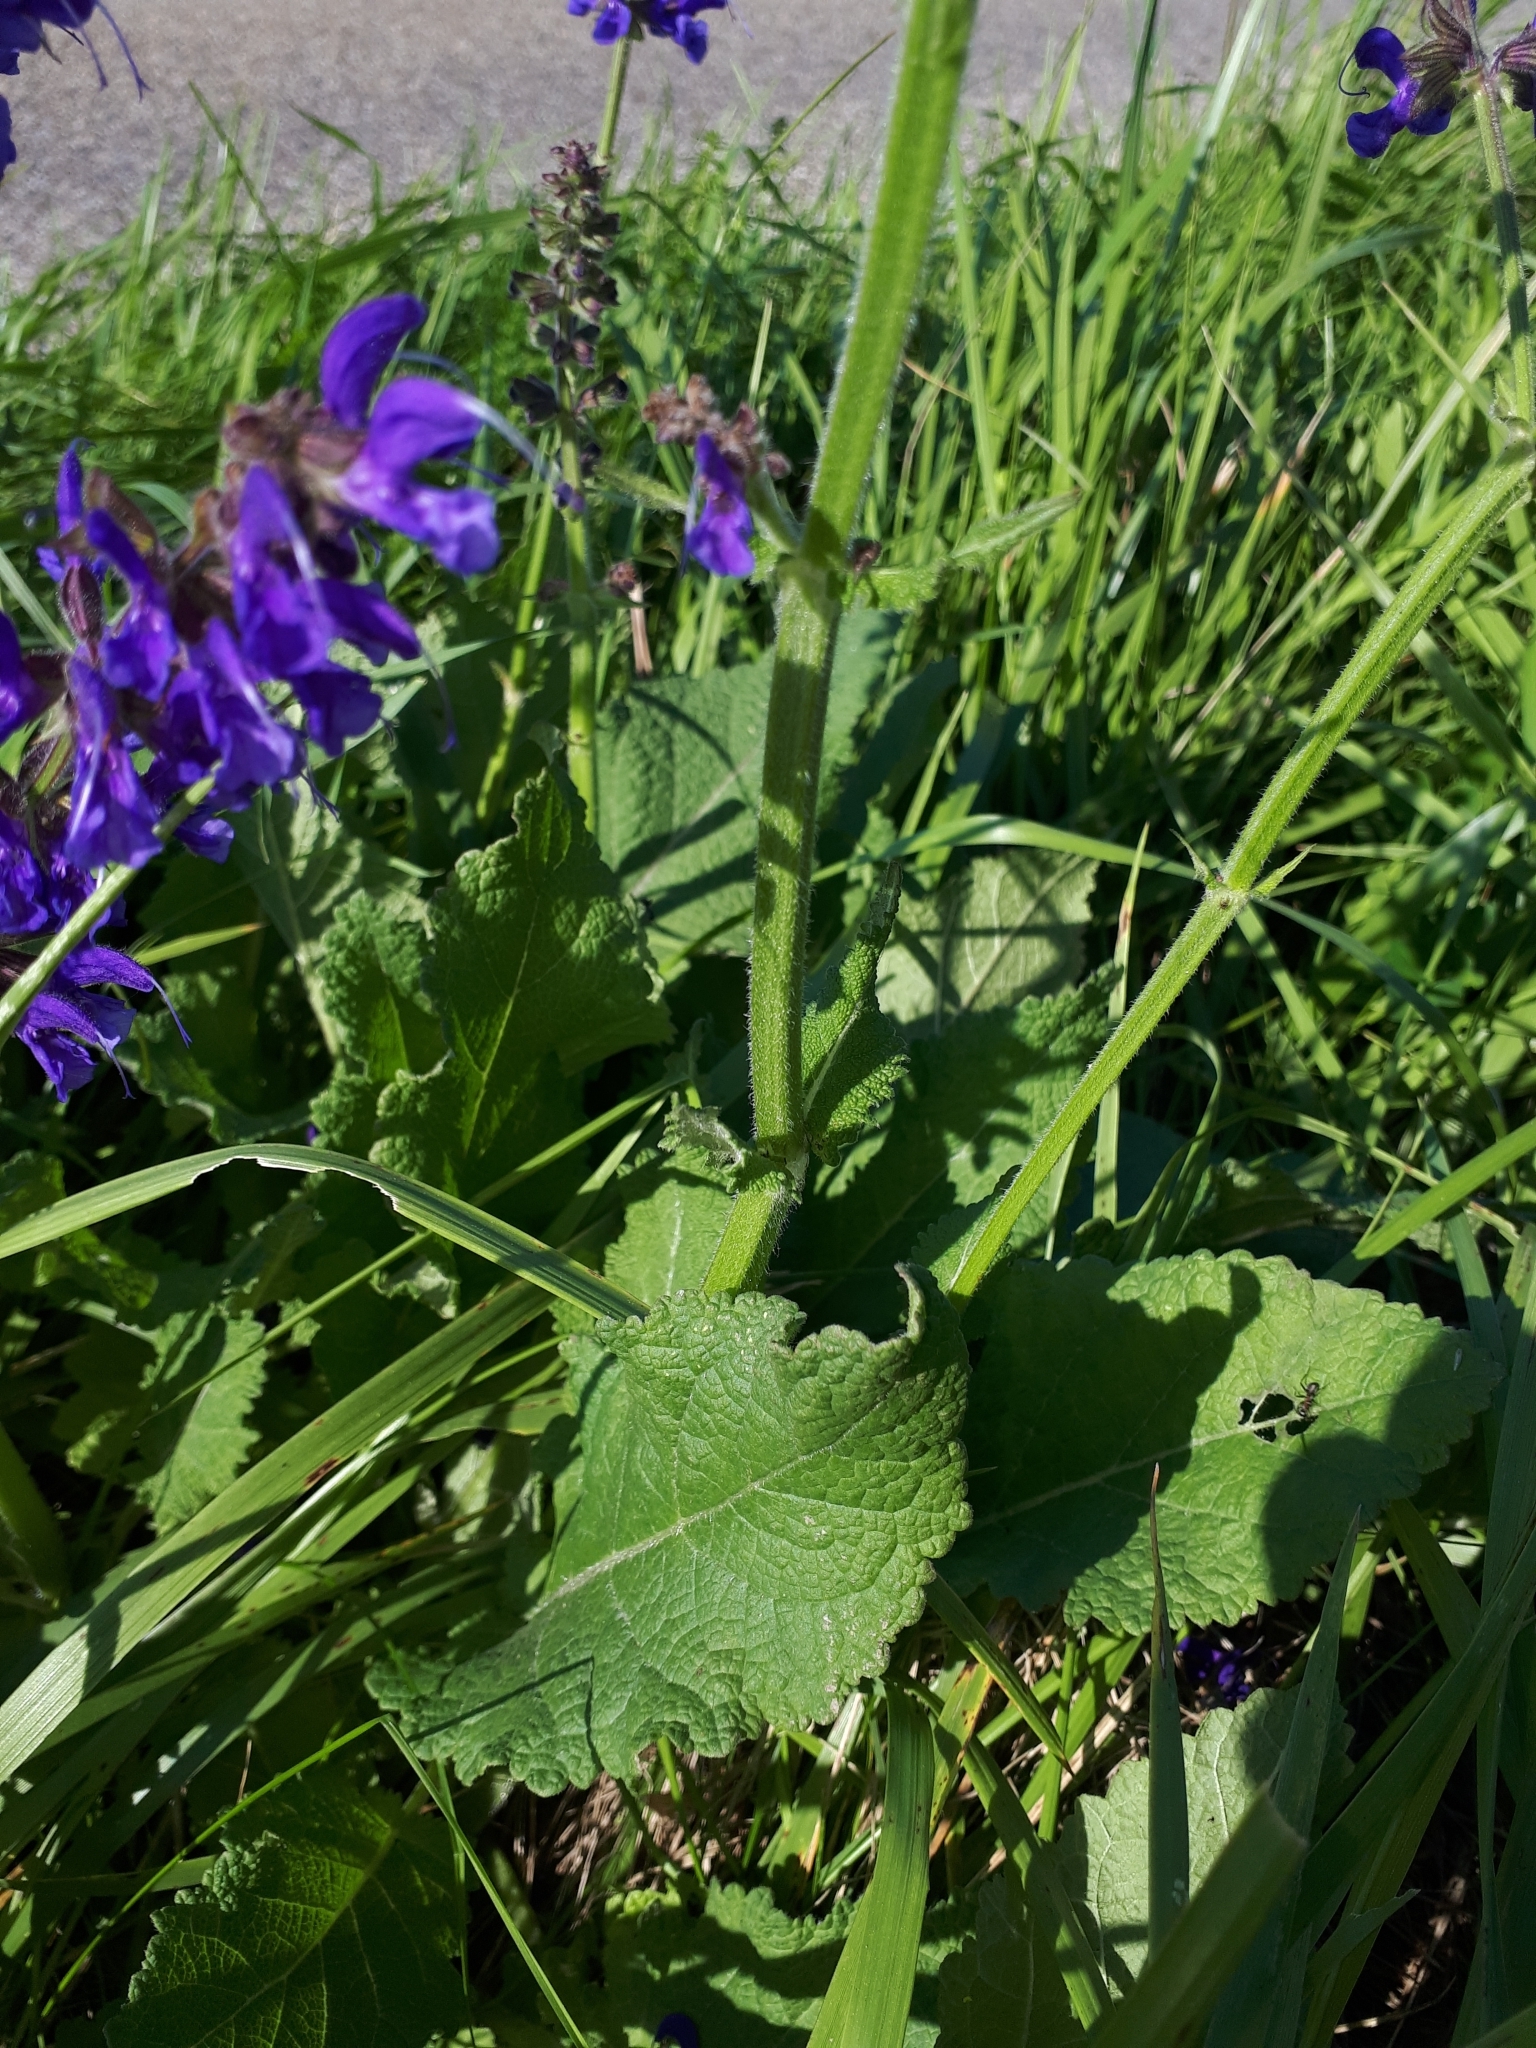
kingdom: Plantae
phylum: Tracheophyta
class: Magnoliopsida
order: Lamiales
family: Lamiaceae
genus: Salvia
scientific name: Salvia pratensis
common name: Meadow sage
